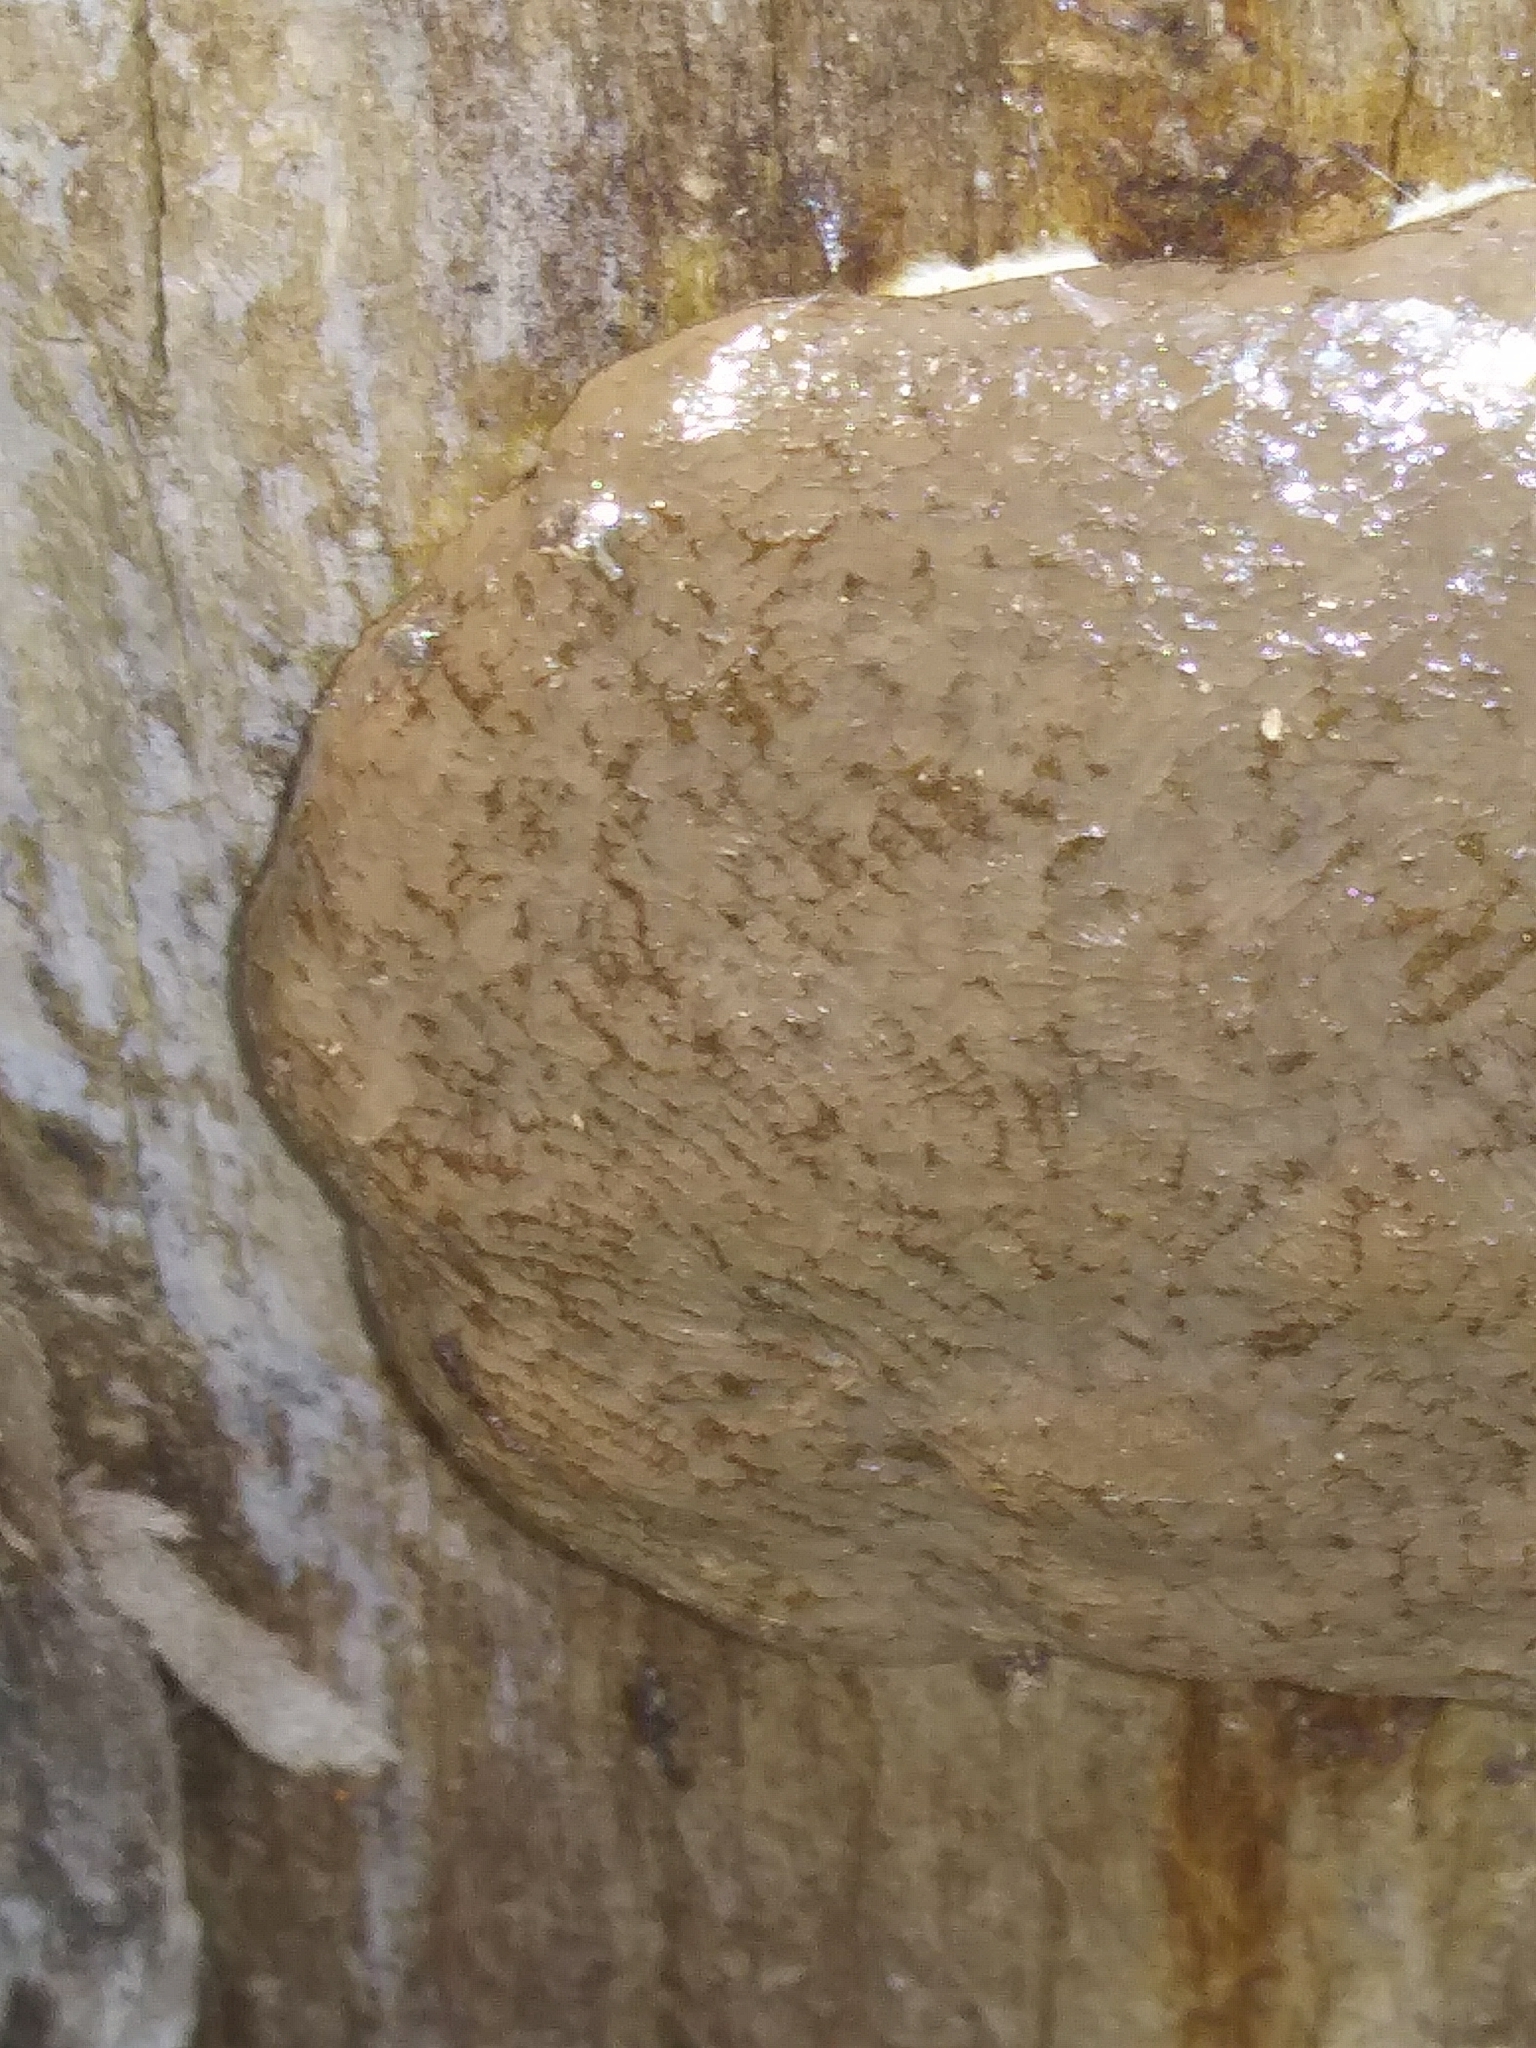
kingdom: Protozoa
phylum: Mycetozoa
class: Myxomycetes
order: Cribrariales
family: Tubiferaceae
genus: Reticularia
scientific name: Reticularia lycoperdon
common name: False puffball
